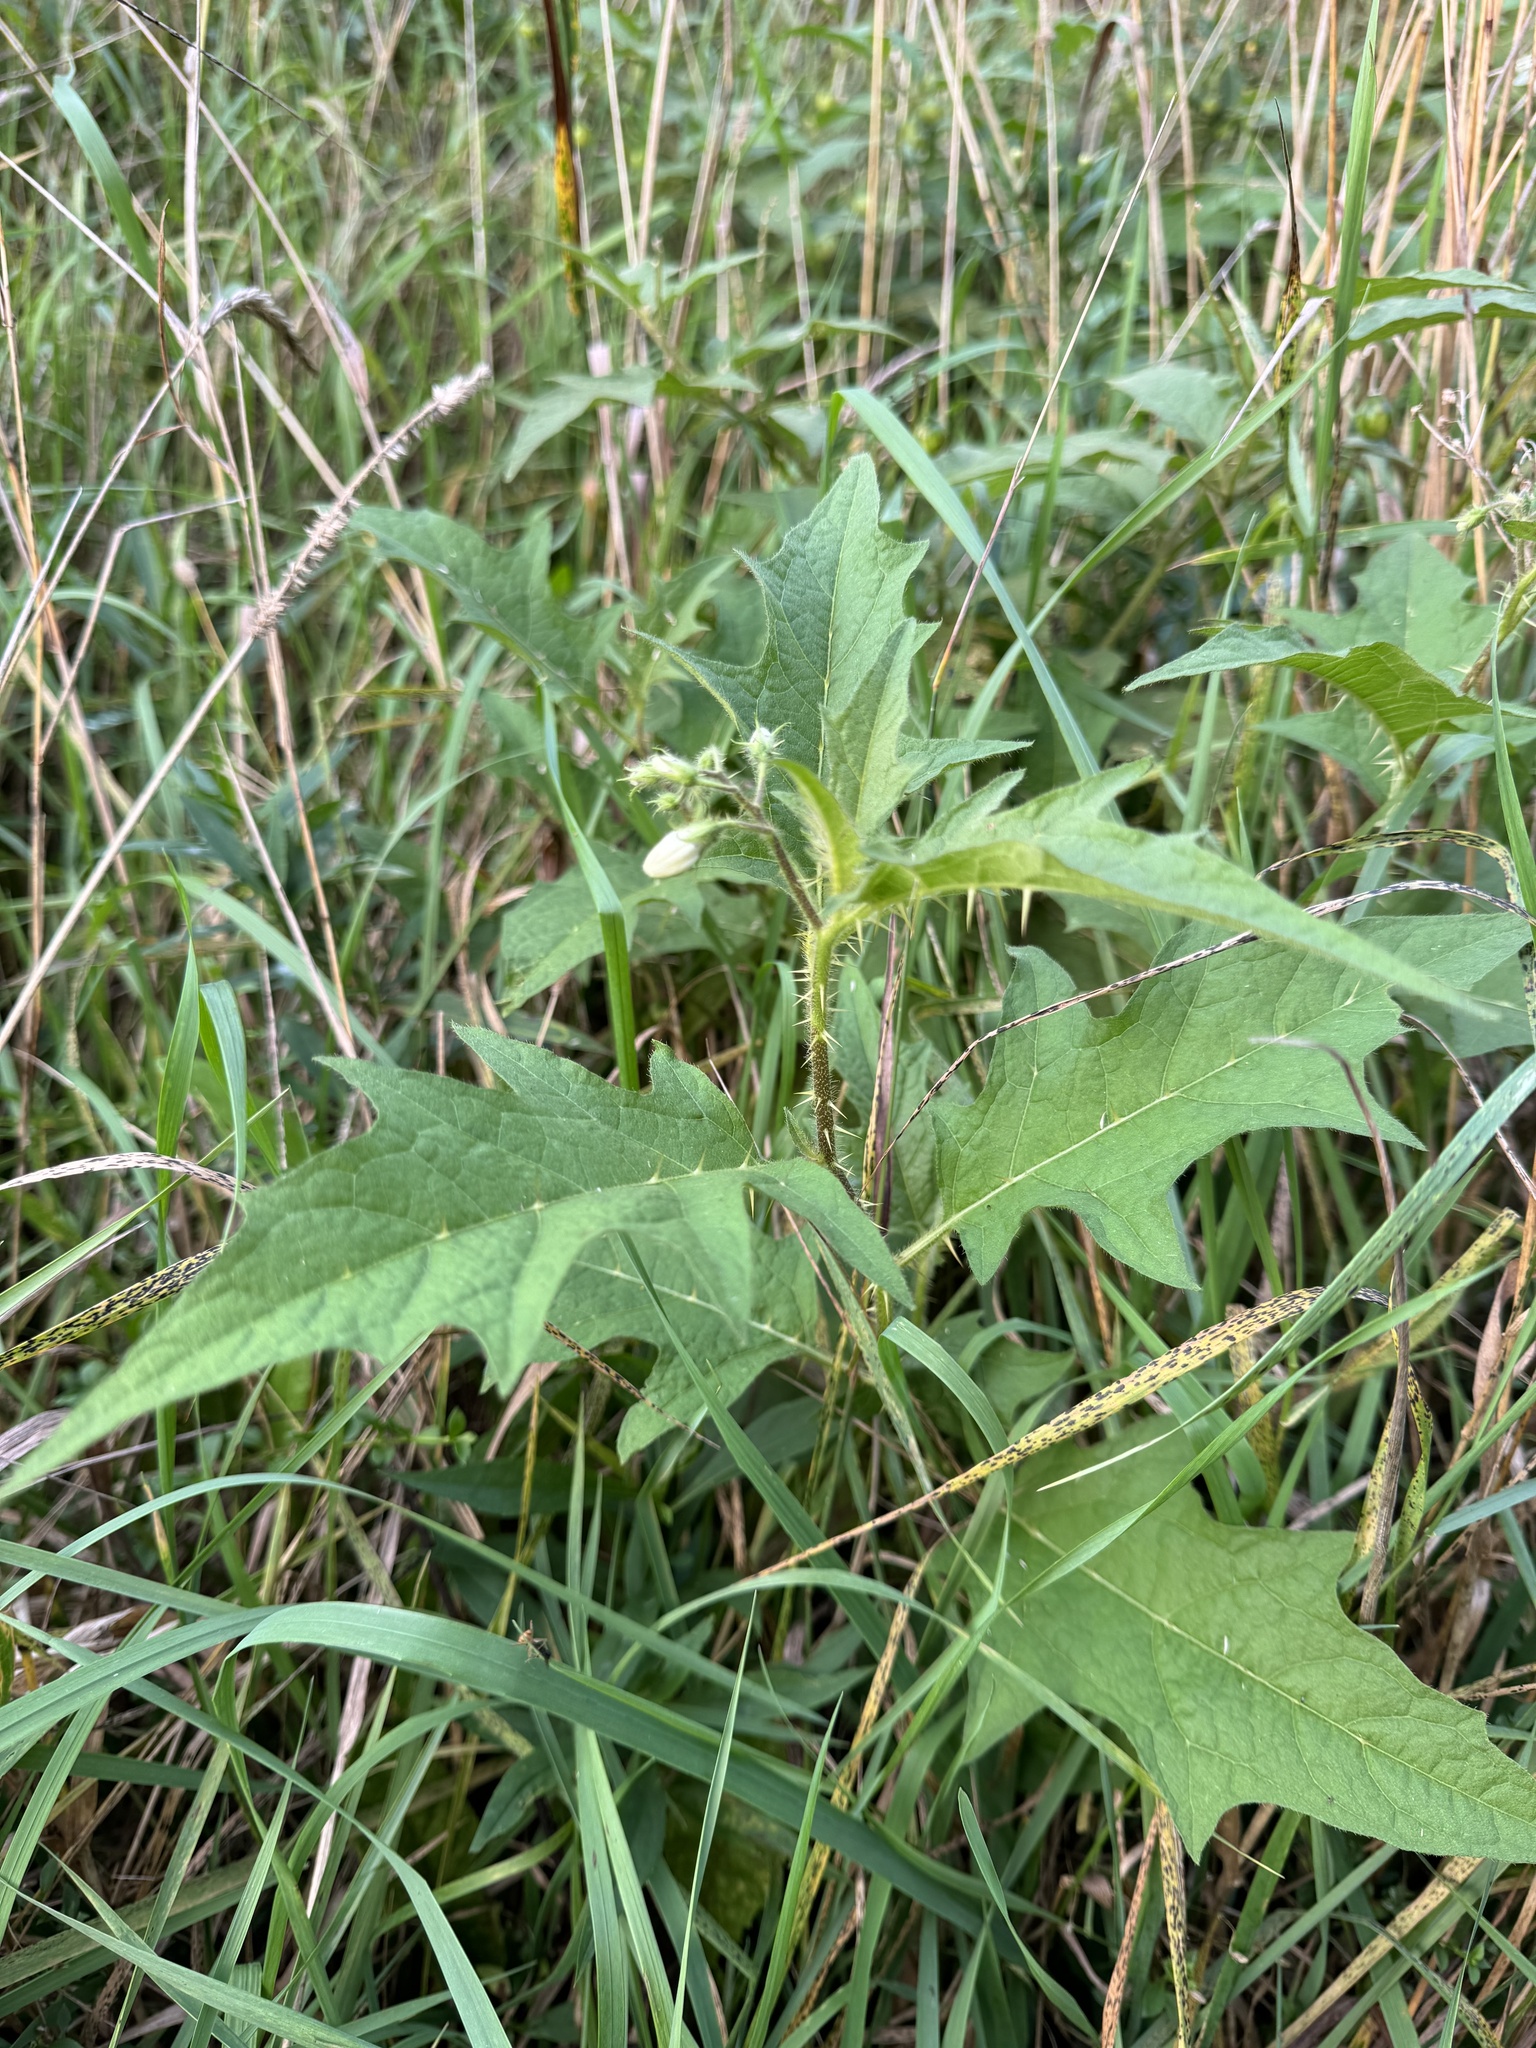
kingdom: Plantae
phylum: Tracheophyta
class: Magnoliopsida
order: Solanales
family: Solanaceae
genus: Solanum
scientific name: Solanum carolinense
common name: Horse-nettle
